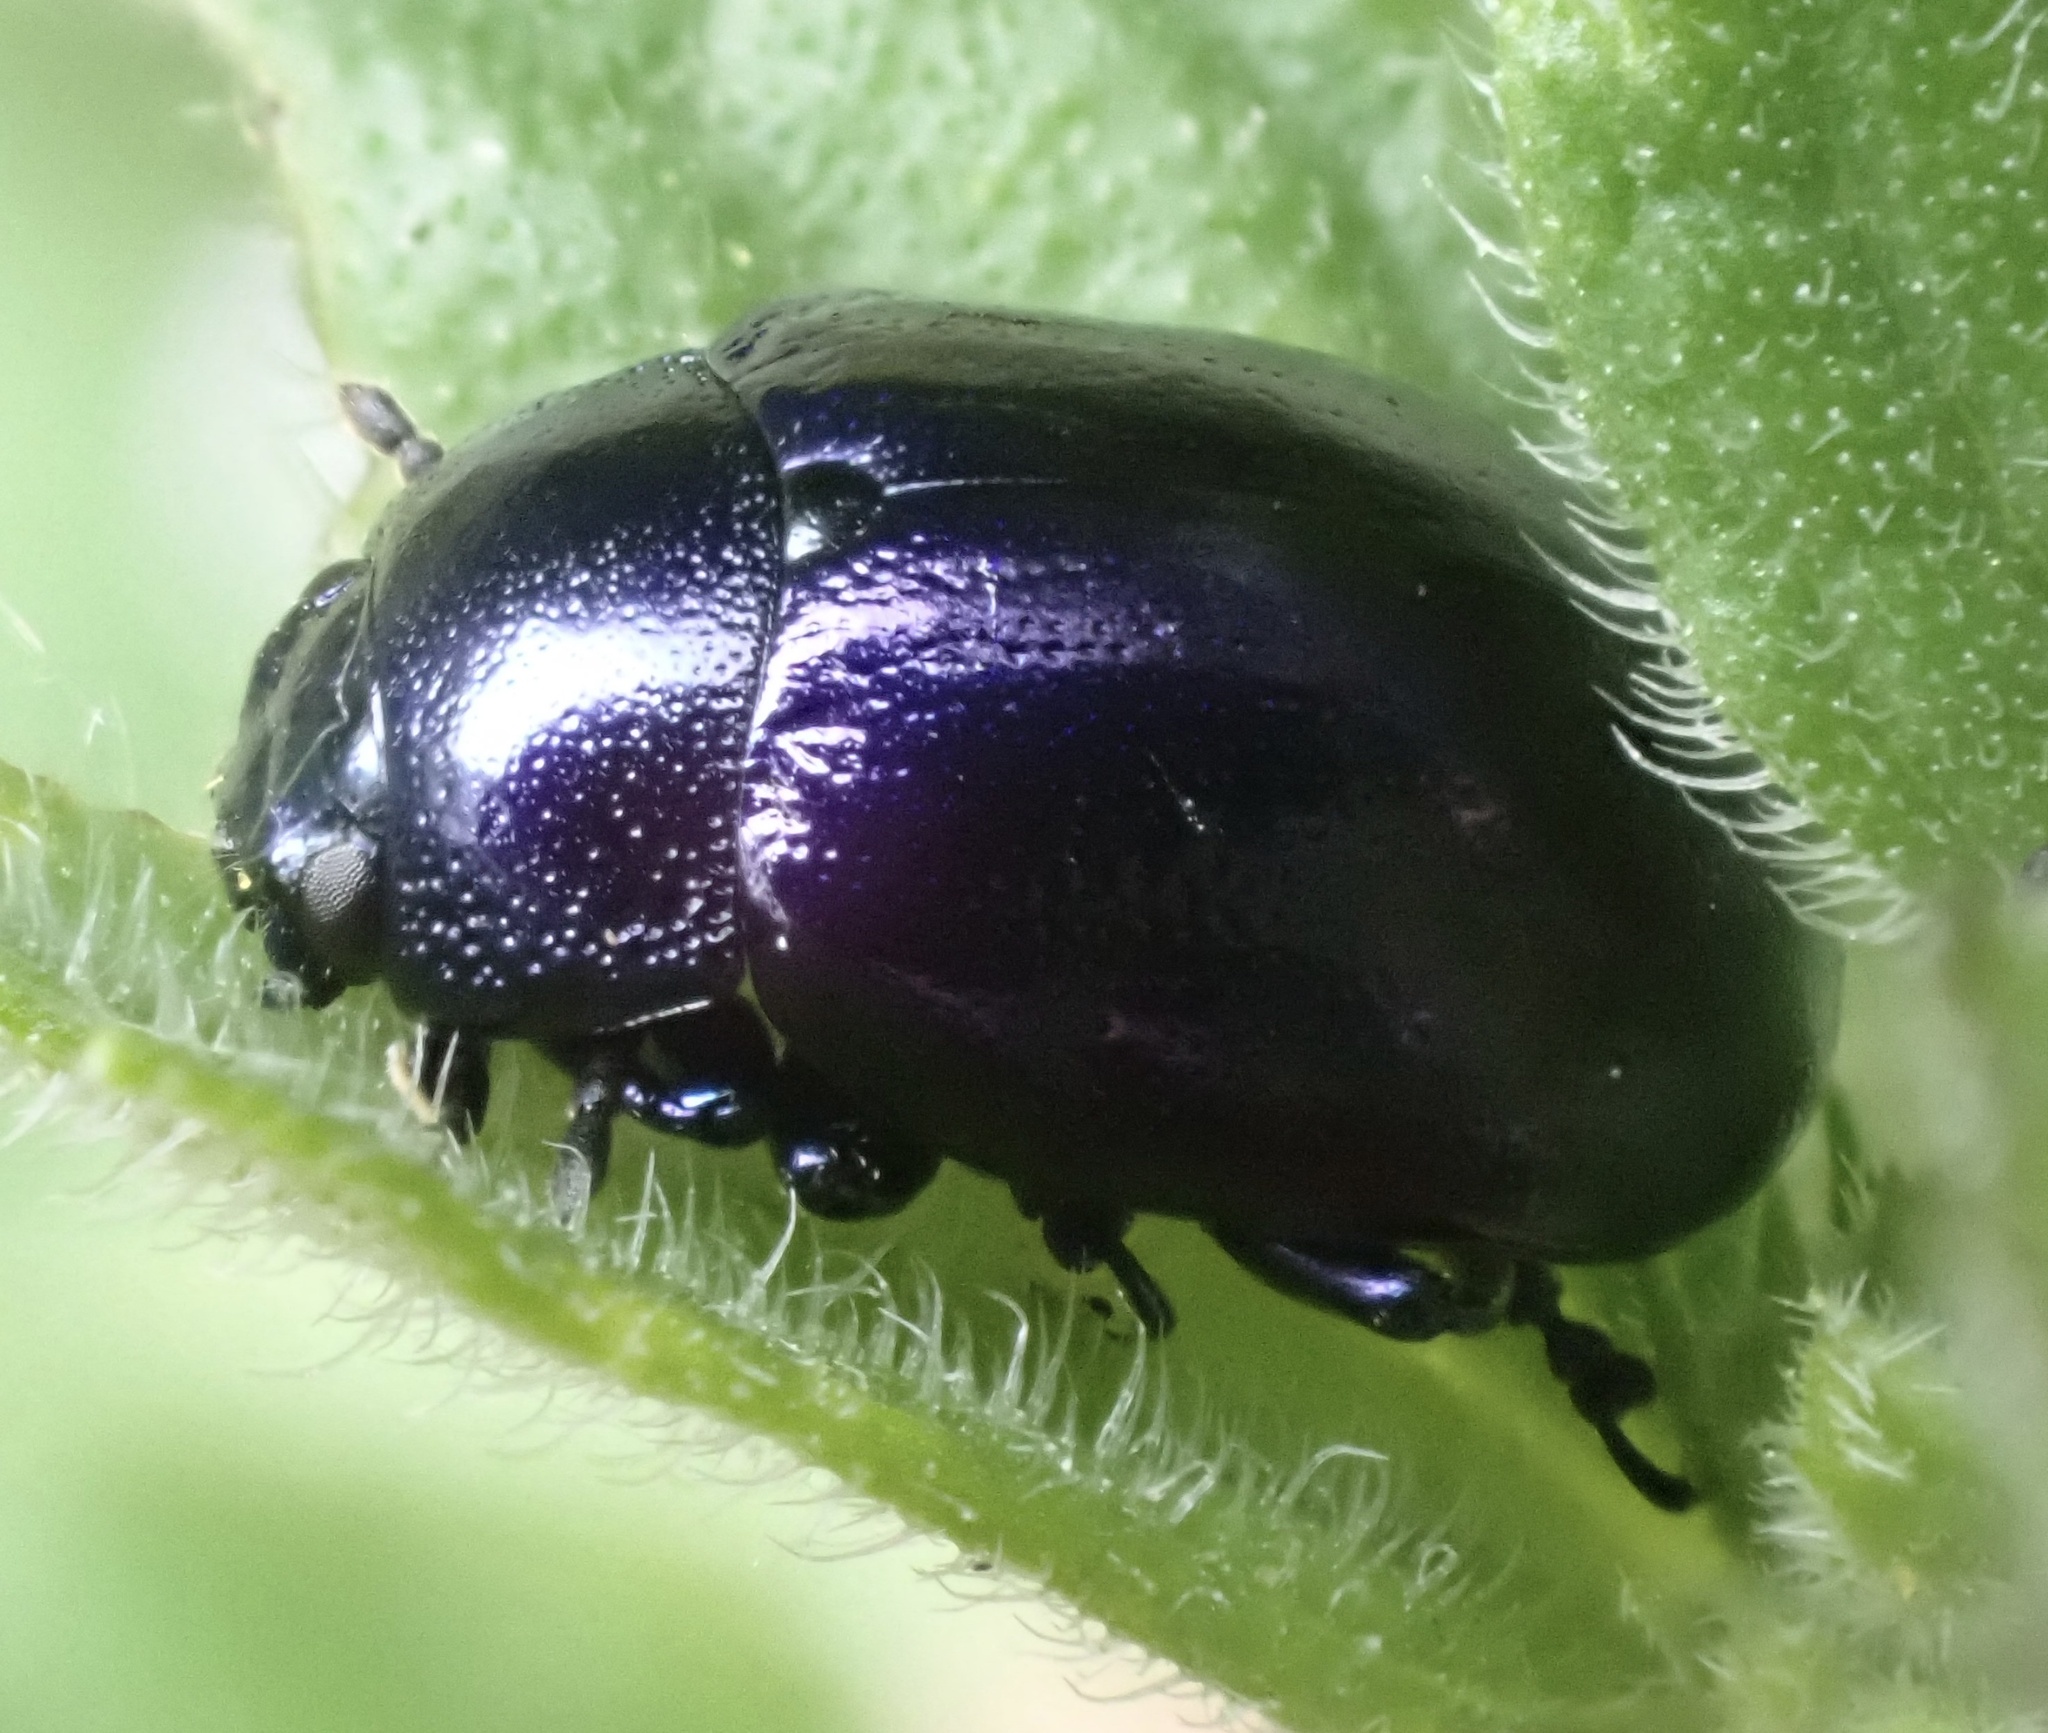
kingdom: Animalia
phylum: Arthropoda
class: Insecta
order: Coleoptera
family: Chrysomelidae
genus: Chrysolina
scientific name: Chrysolina coerulans
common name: Blue mint beetle
